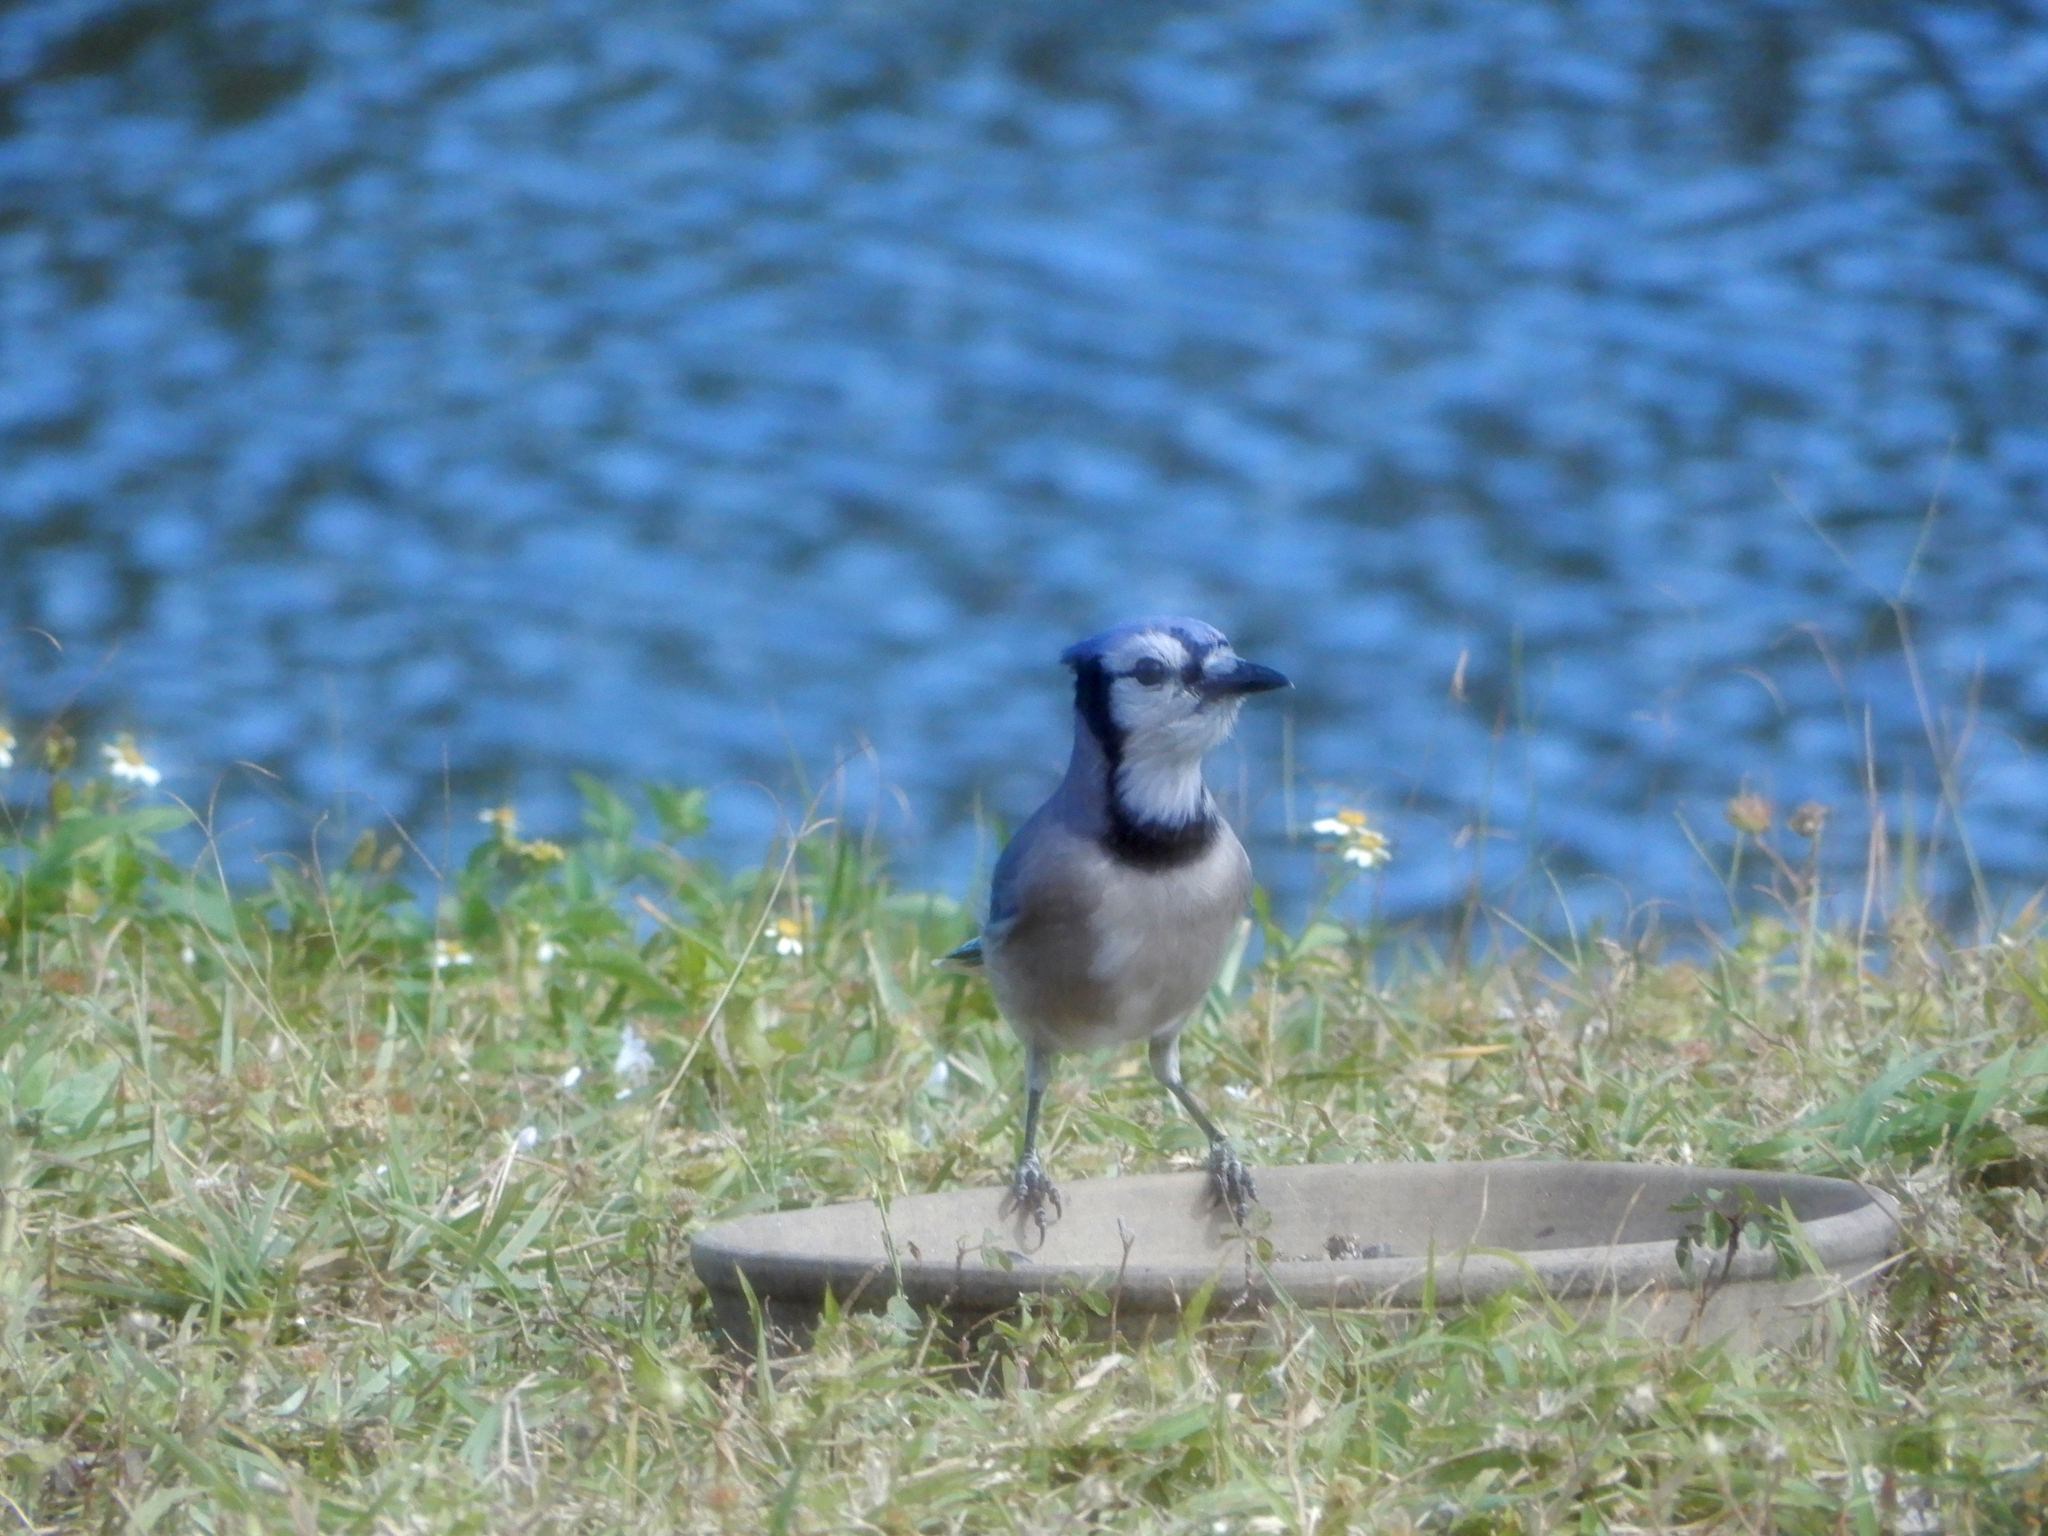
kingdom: Animalia
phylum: Chordata
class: Aves
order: Passeriformes
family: Corvidae
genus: Cyanocitta
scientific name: Cyanocitta cristata
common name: Blue jay
